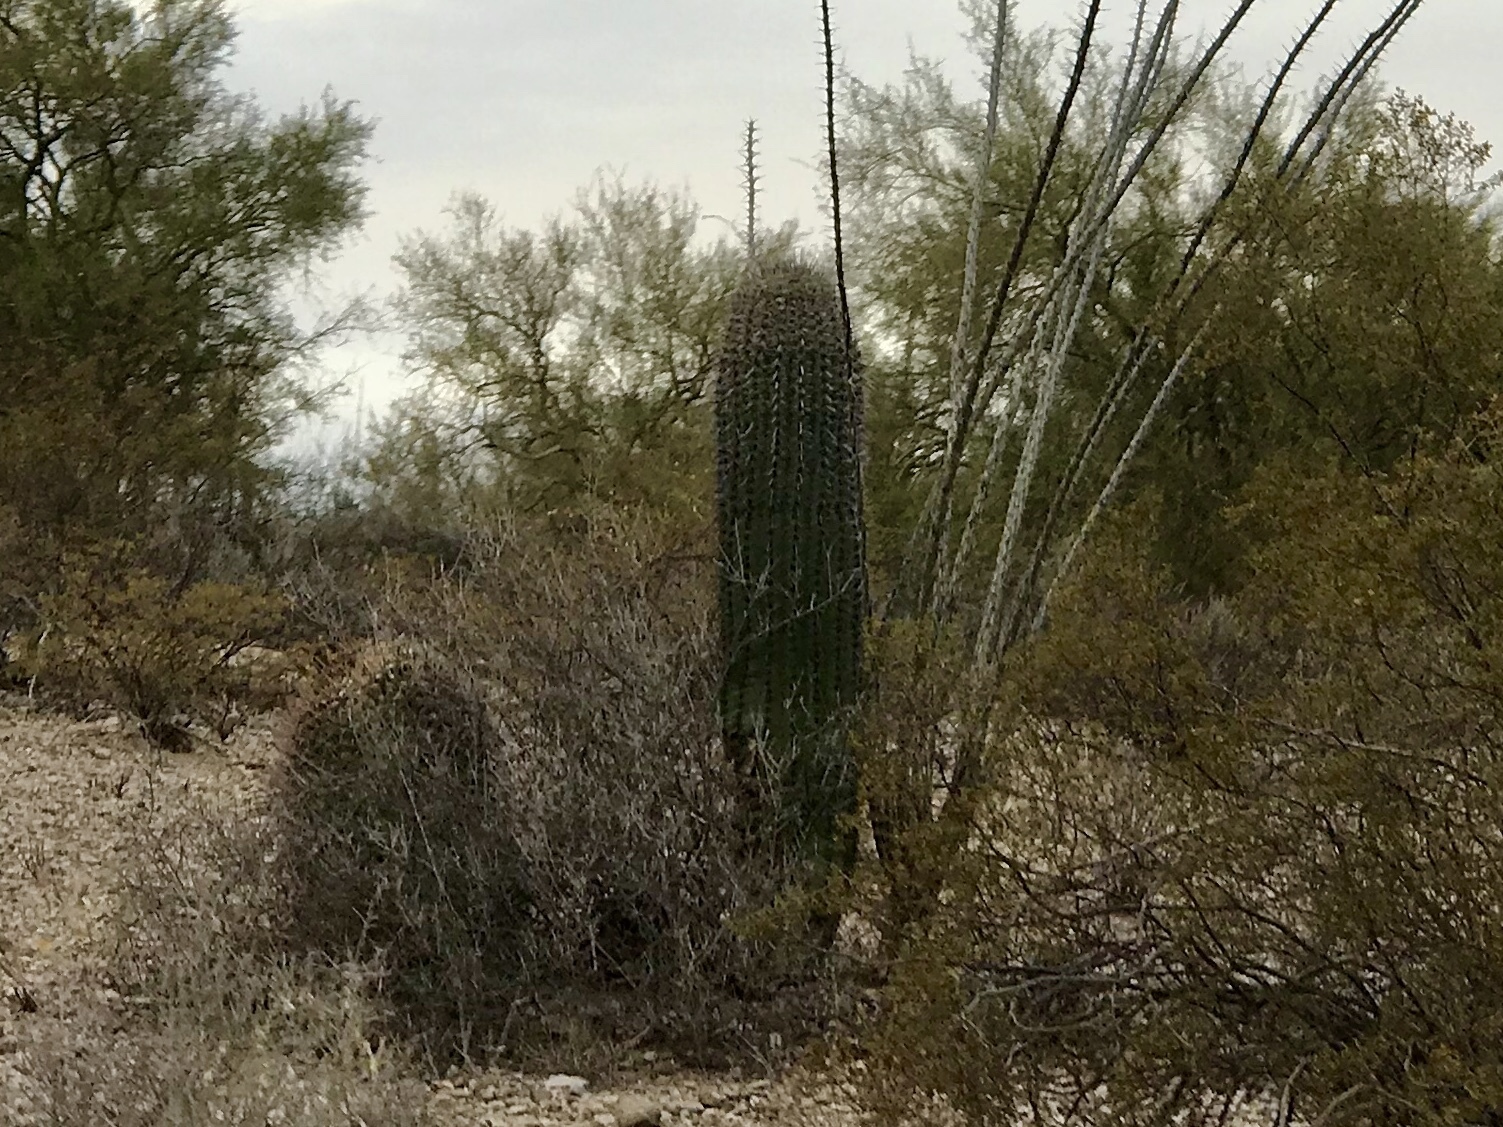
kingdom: Plantae
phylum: Tracheophyta
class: Magnoliopsida
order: Caryophyllales
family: Cactaceae
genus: Carnegiea
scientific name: Carnegiea gigantea
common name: Saguaro
